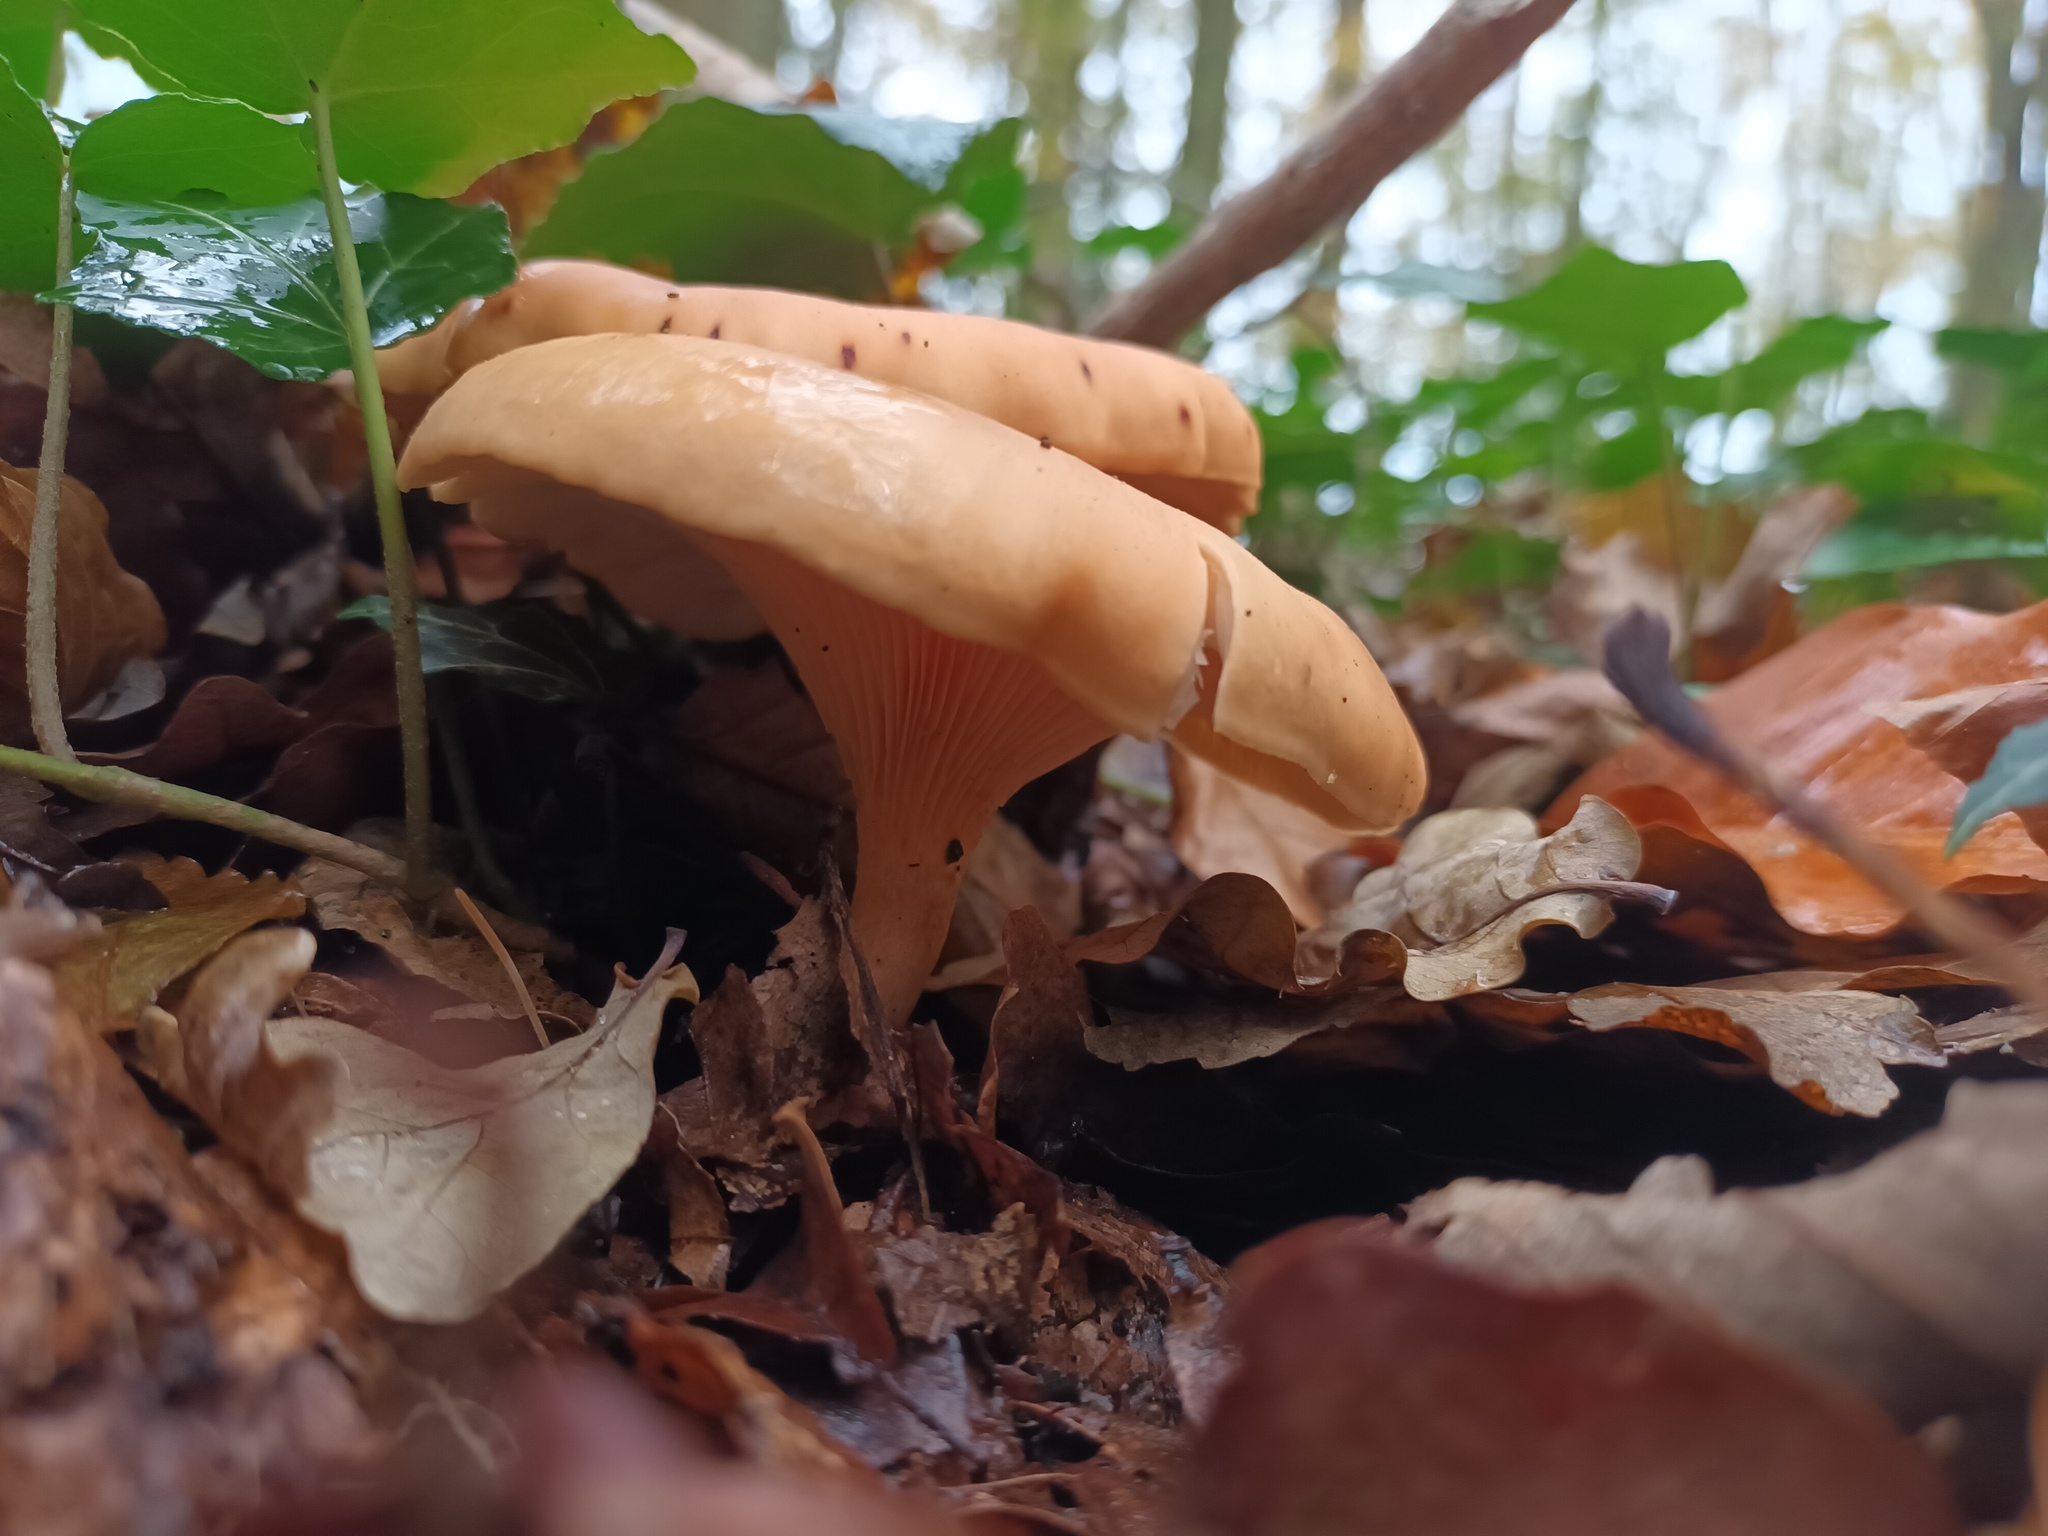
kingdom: Fungi
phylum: Basidiomycota
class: Agaricomycetes
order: Agaricales
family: Tricholomataceae
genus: Paralepista
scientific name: Paralepista flaccida
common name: Tawny funnel cap
